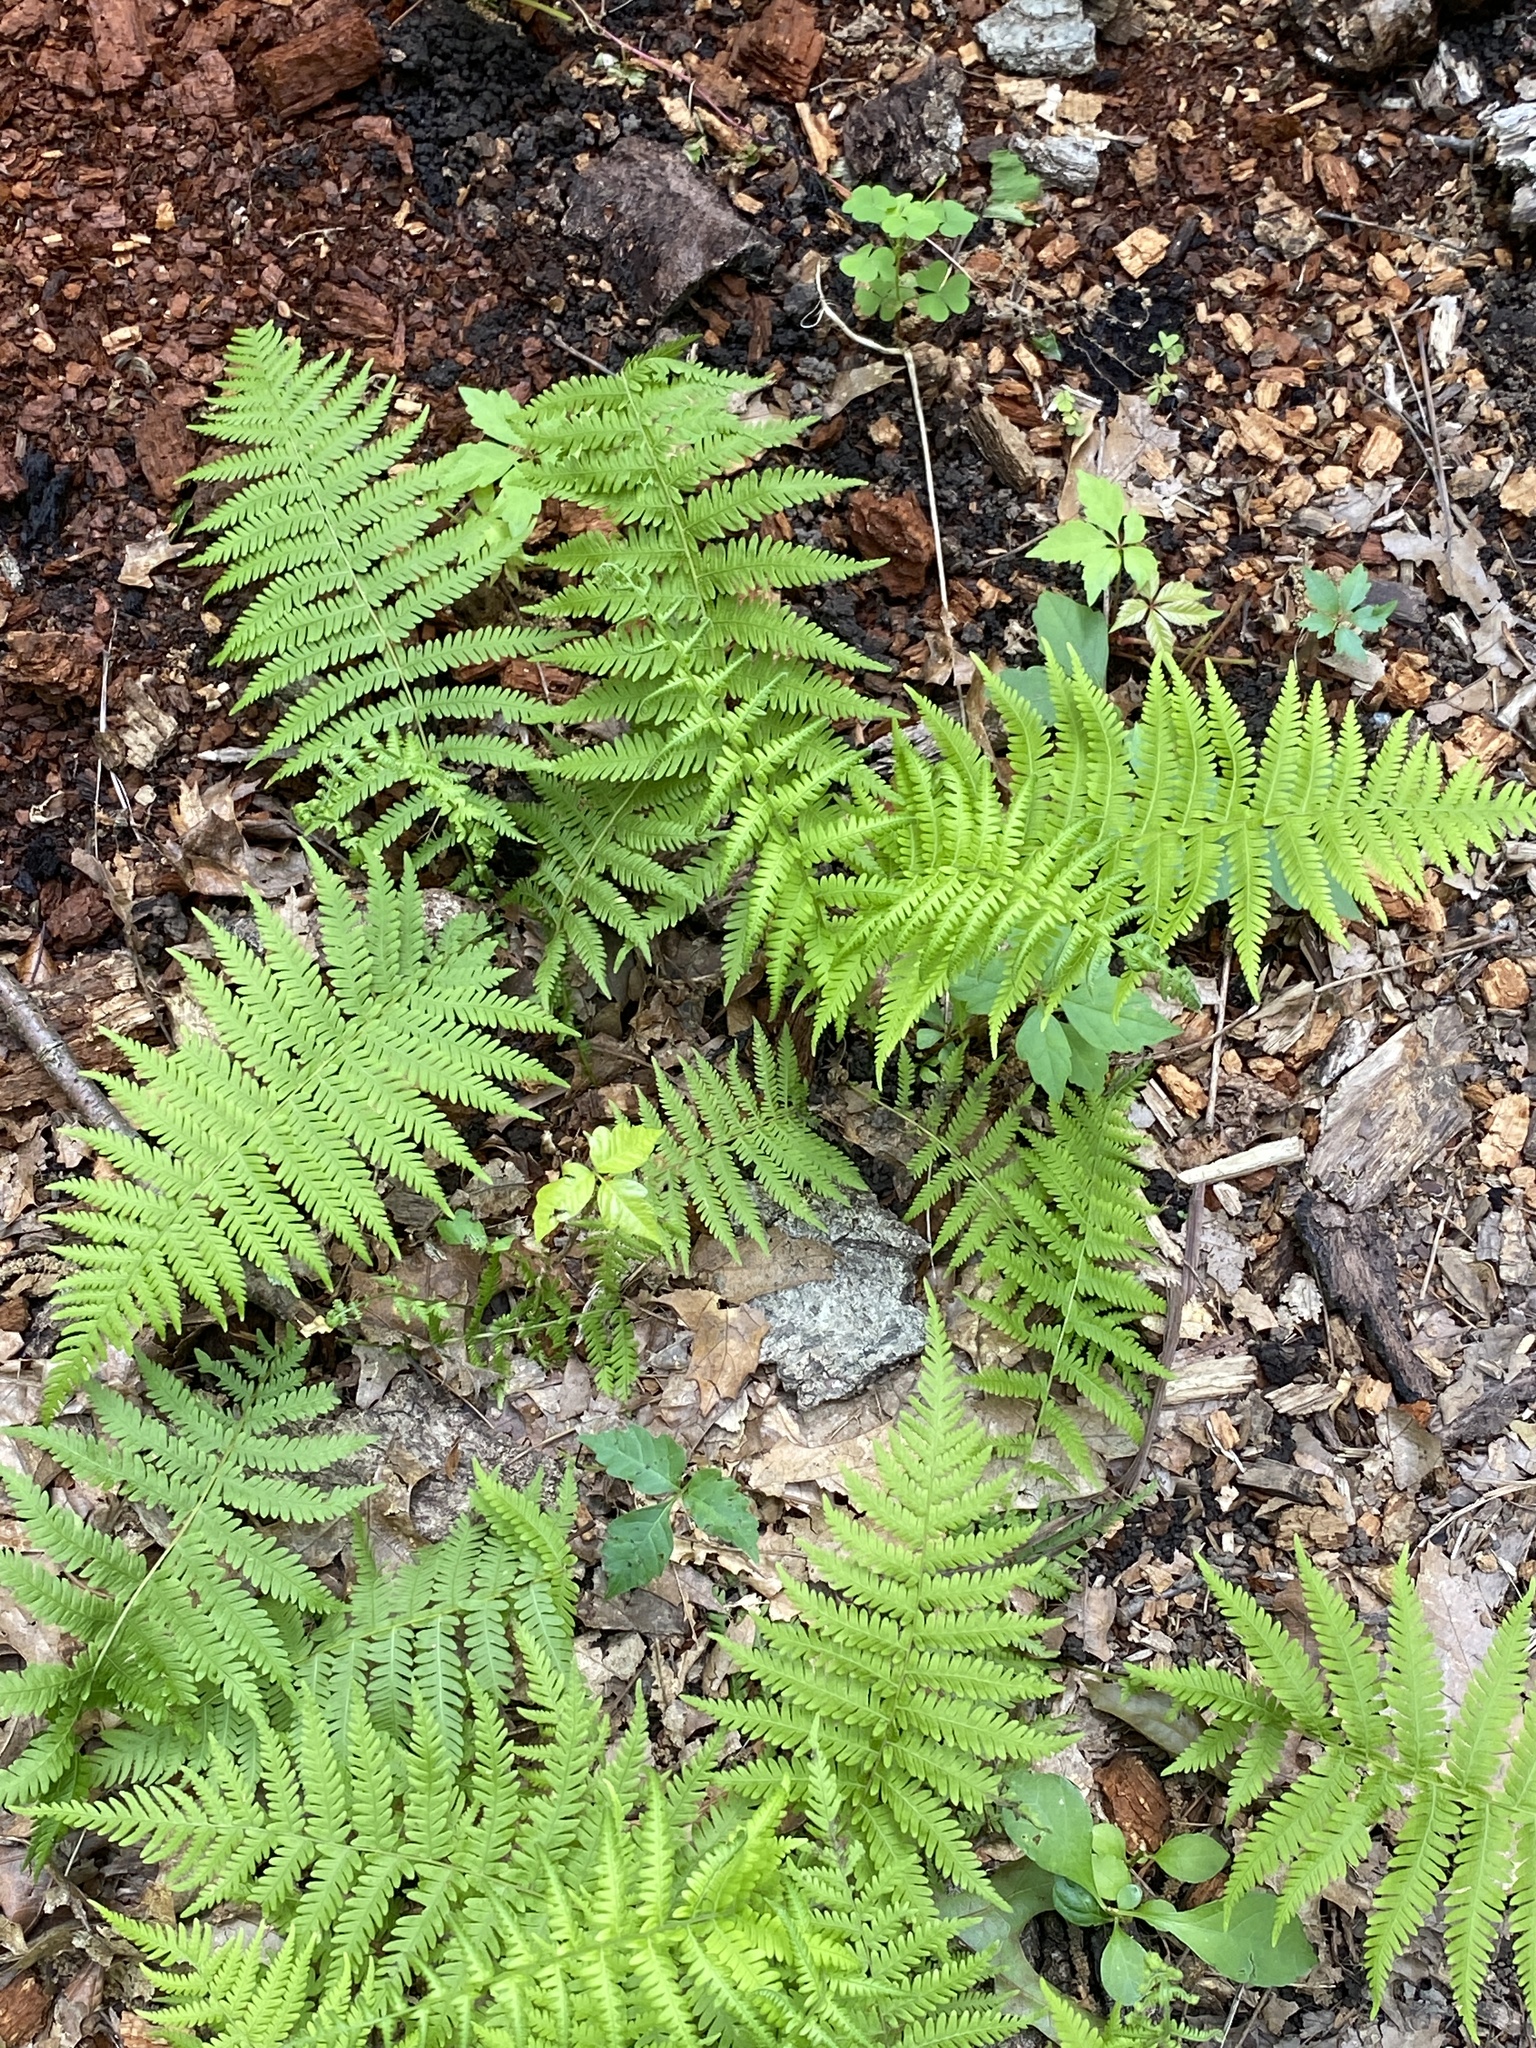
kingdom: Plantae
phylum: Tracheophyta
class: Polypodiopsida
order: Polypodiales
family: Thelypteridaceae
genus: Amauropelta
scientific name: Amauropelta noveboracensis
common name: New york fern
